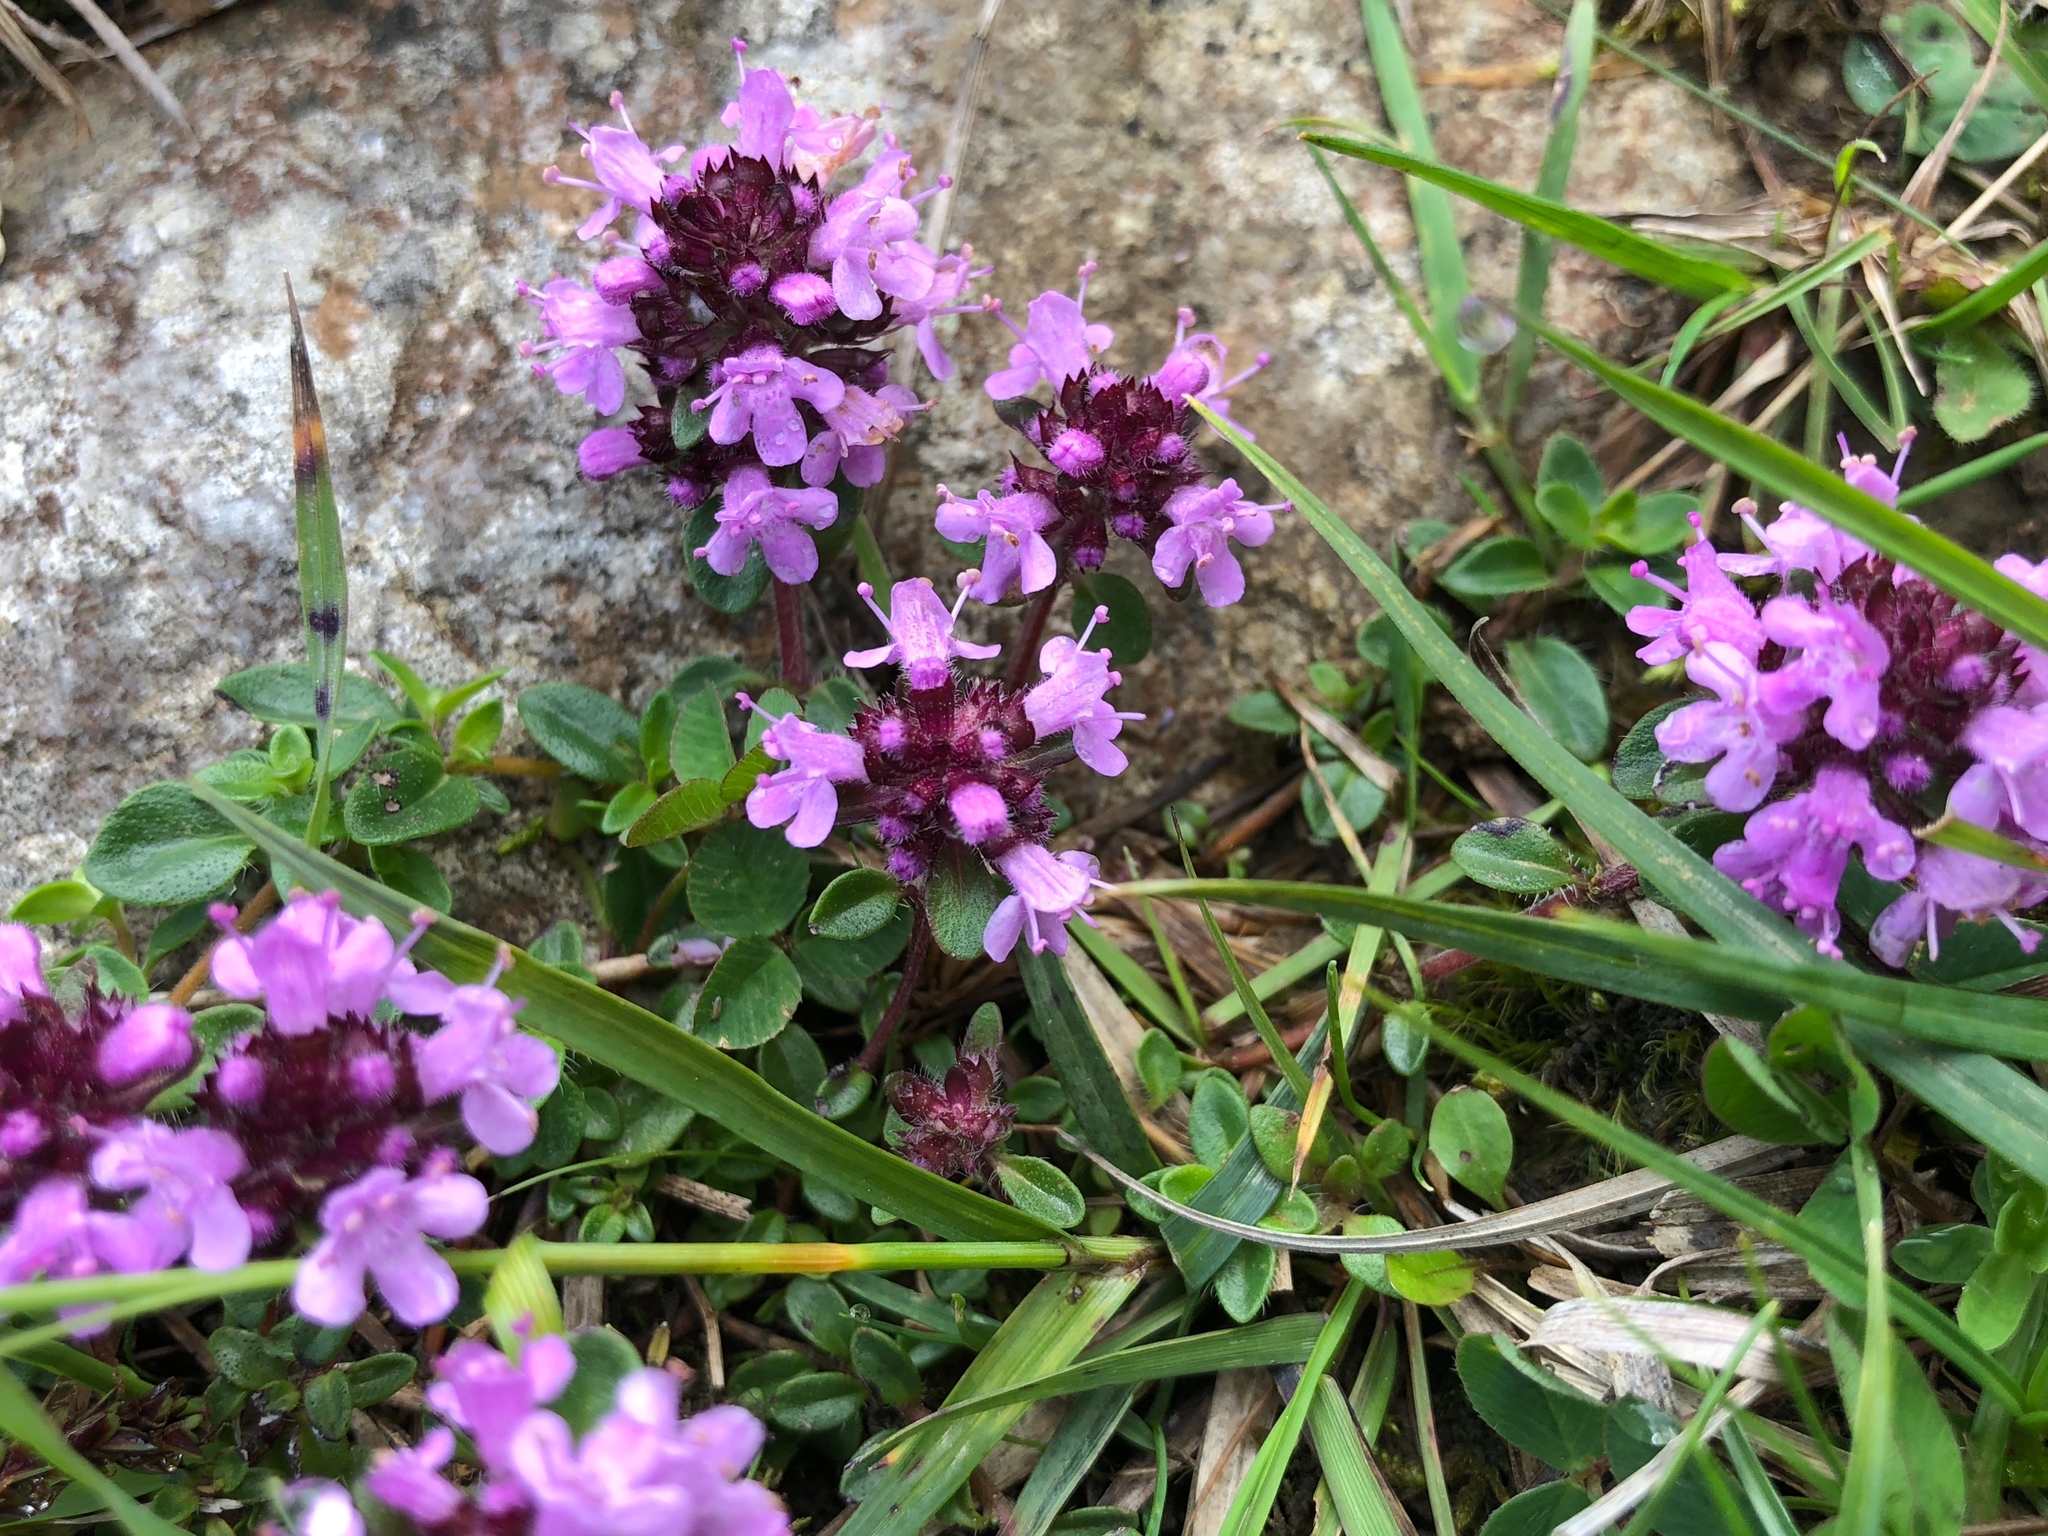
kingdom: Plantae
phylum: Tracheophyta
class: Magnoliopsida
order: Lamiales
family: Lamiaceae
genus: Thymus
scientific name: Thymus pulegioides
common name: Large thyme
